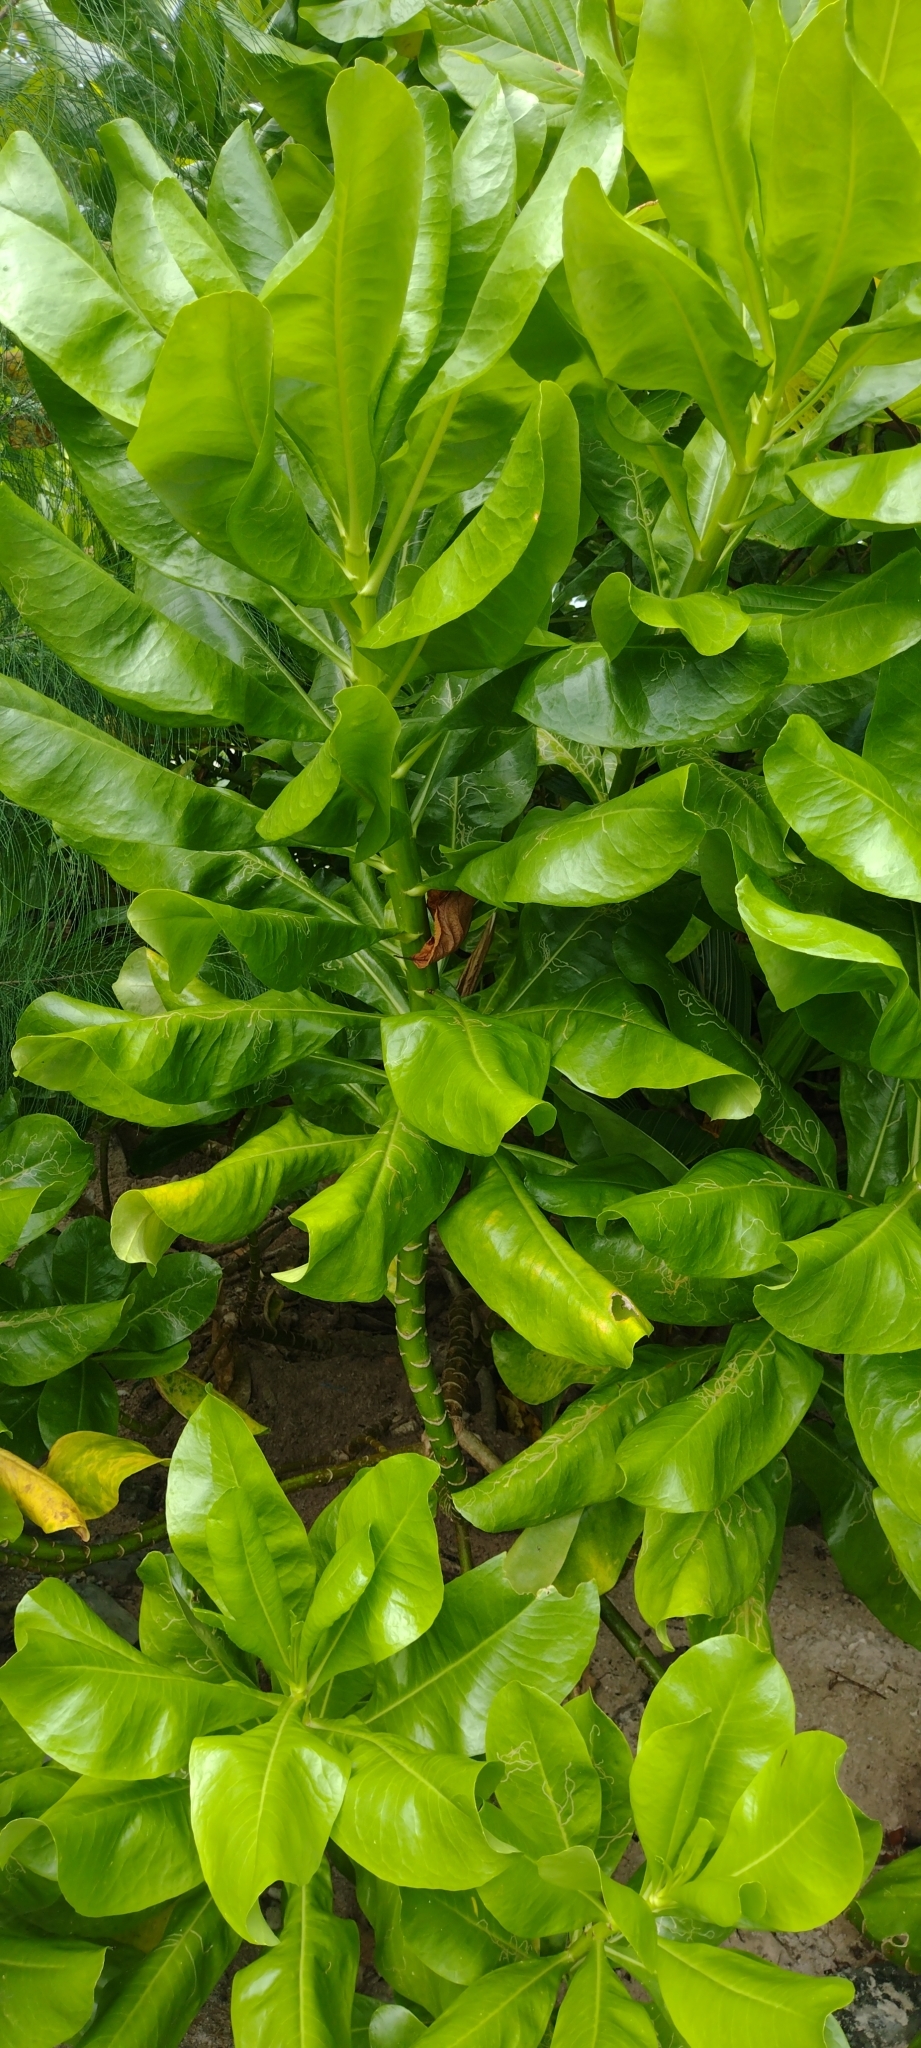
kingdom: Plantae
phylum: Tracheophyta
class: Magnoliopsida
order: Asterales
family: Goodeniaceae
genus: Scaevola
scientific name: Scaevola taccada
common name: Sea lettucetree
